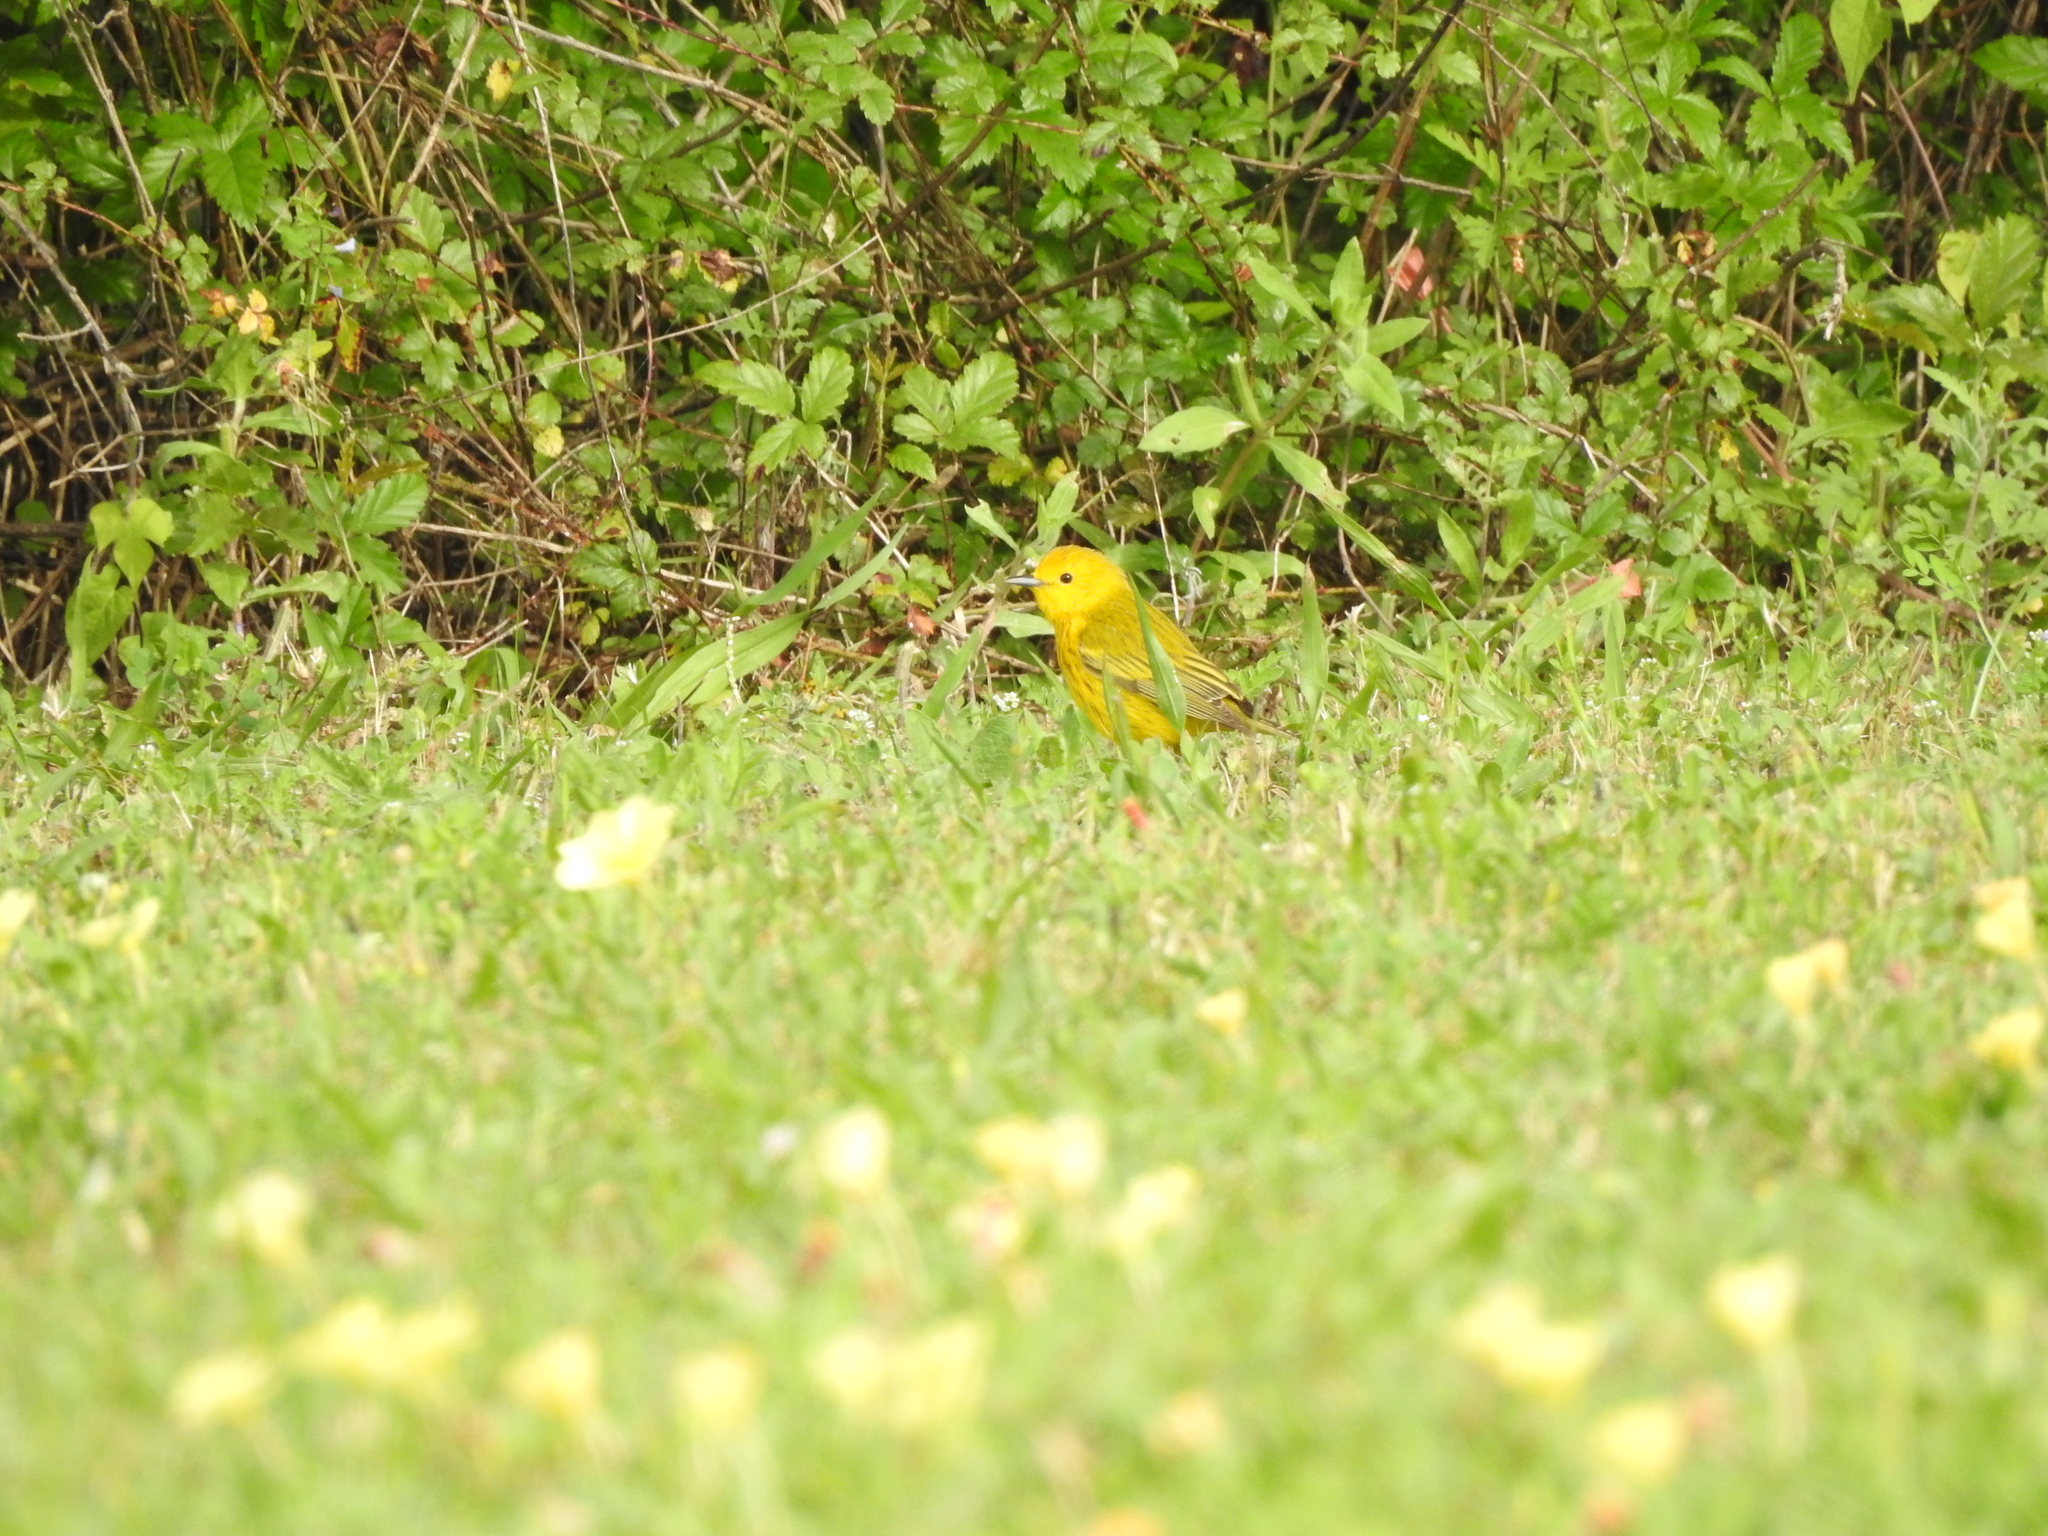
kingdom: Animalia
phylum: Chordata
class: Aves
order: Passeriformes
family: Parulidae
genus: Setophaga
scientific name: Setophaga petechia
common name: Yellow warbler
